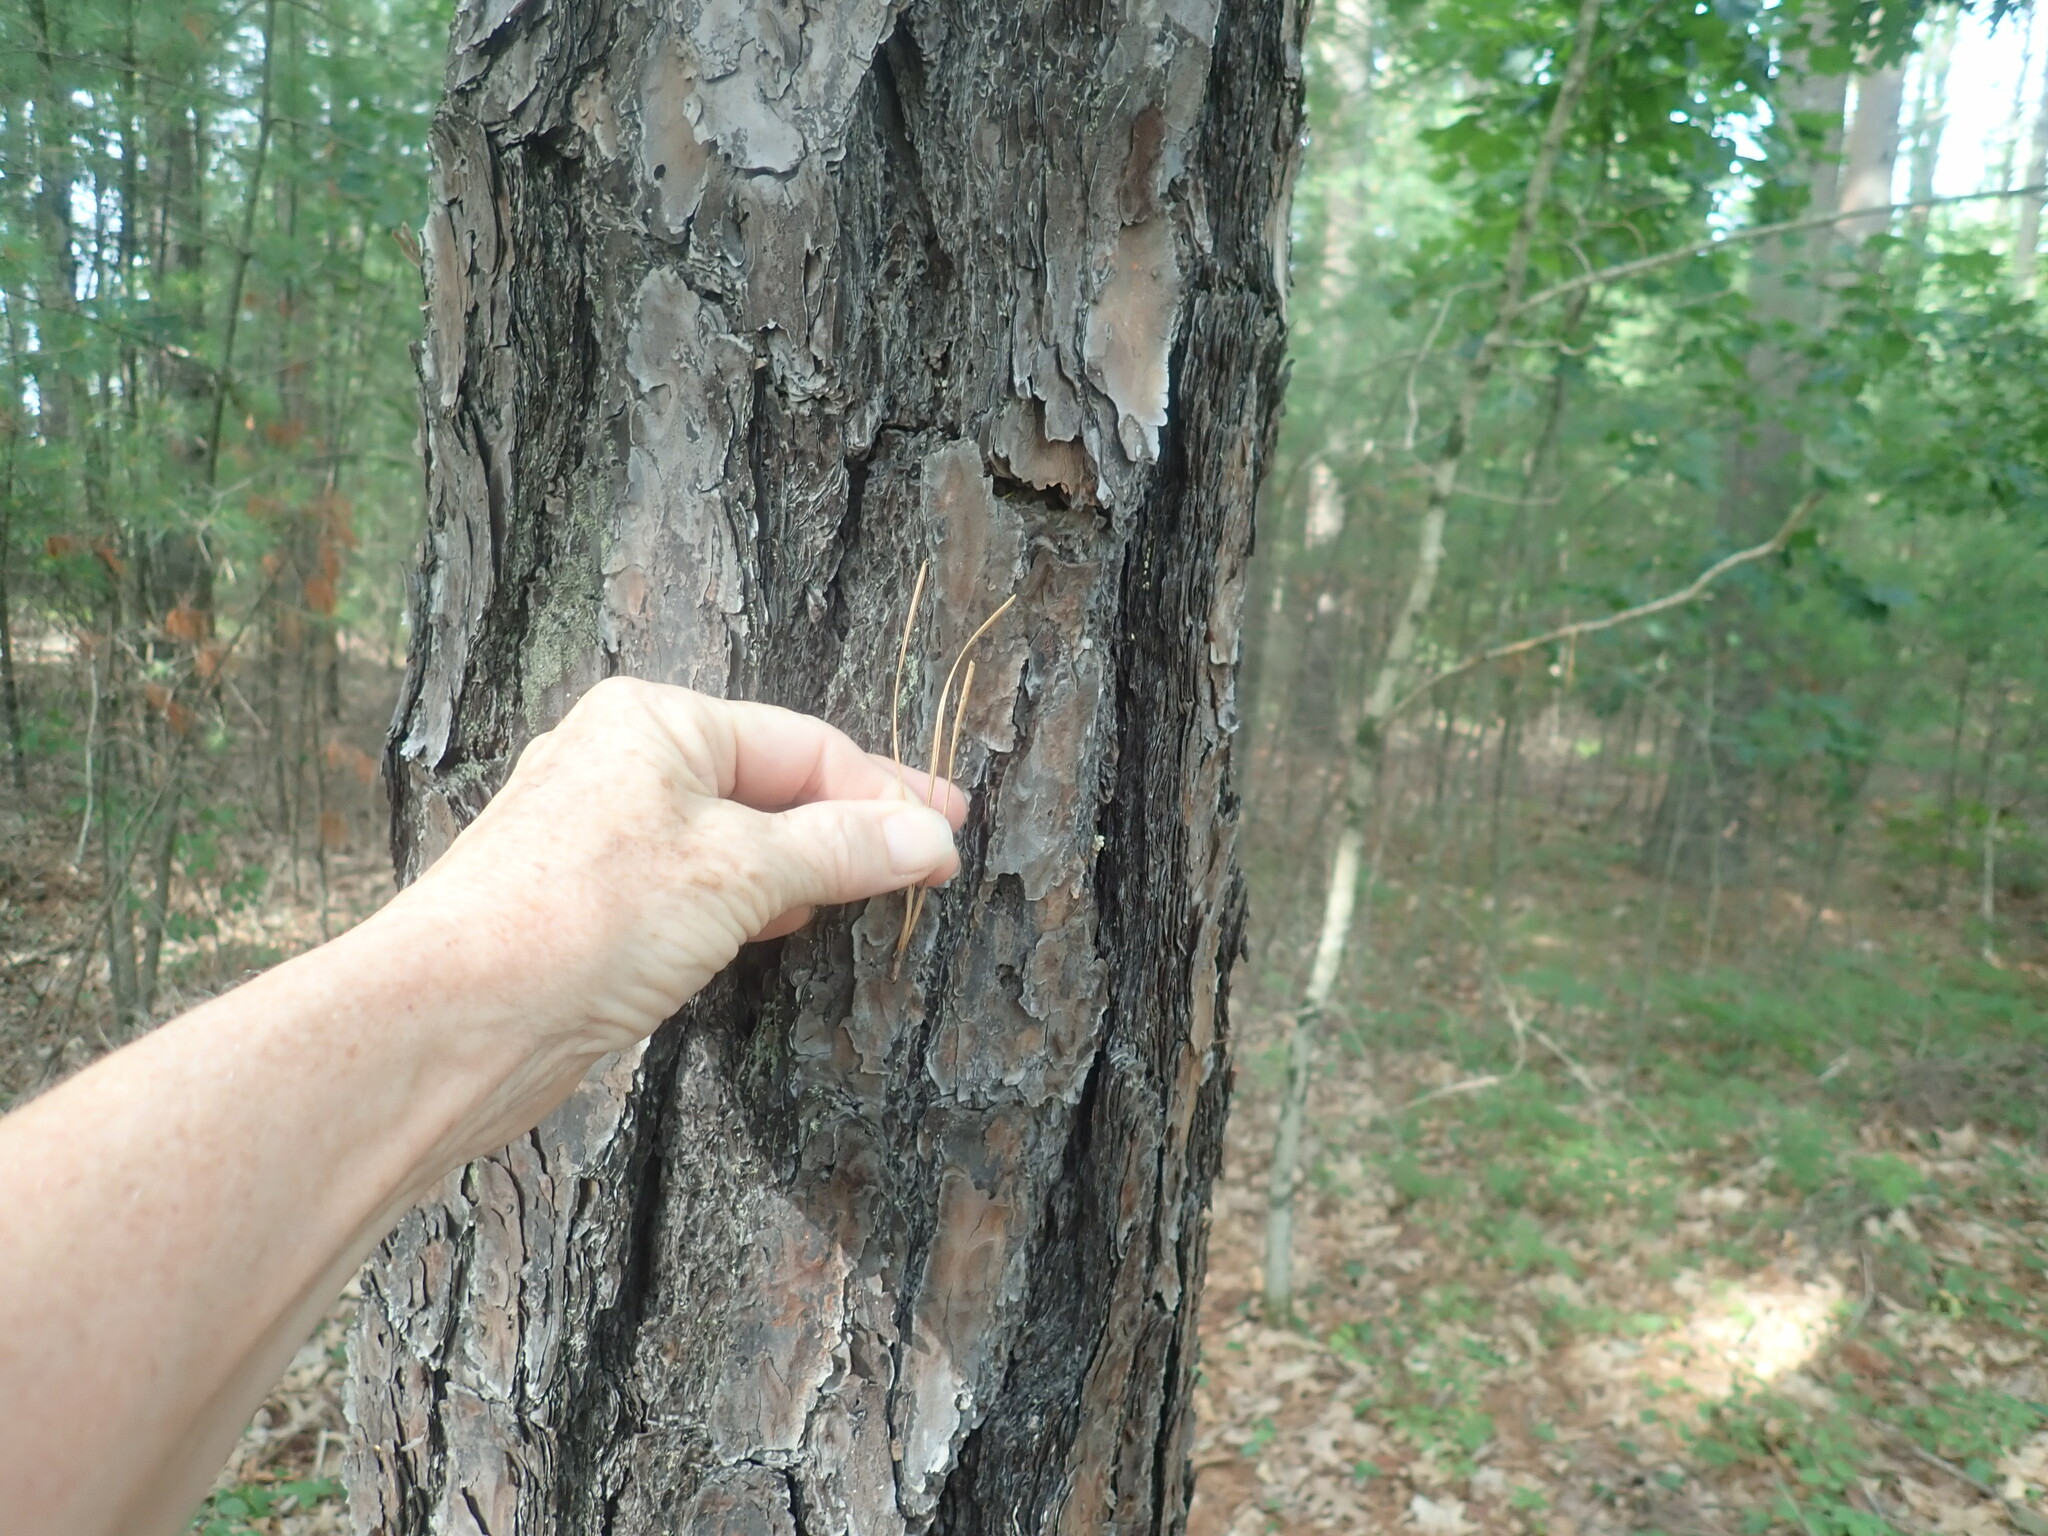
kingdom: Plantae
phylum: Tracheophyta
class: Pinopsida
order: Pinales
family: Pinaceae
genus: Pinus
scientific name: Pinus rigida
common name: Pitch pine
